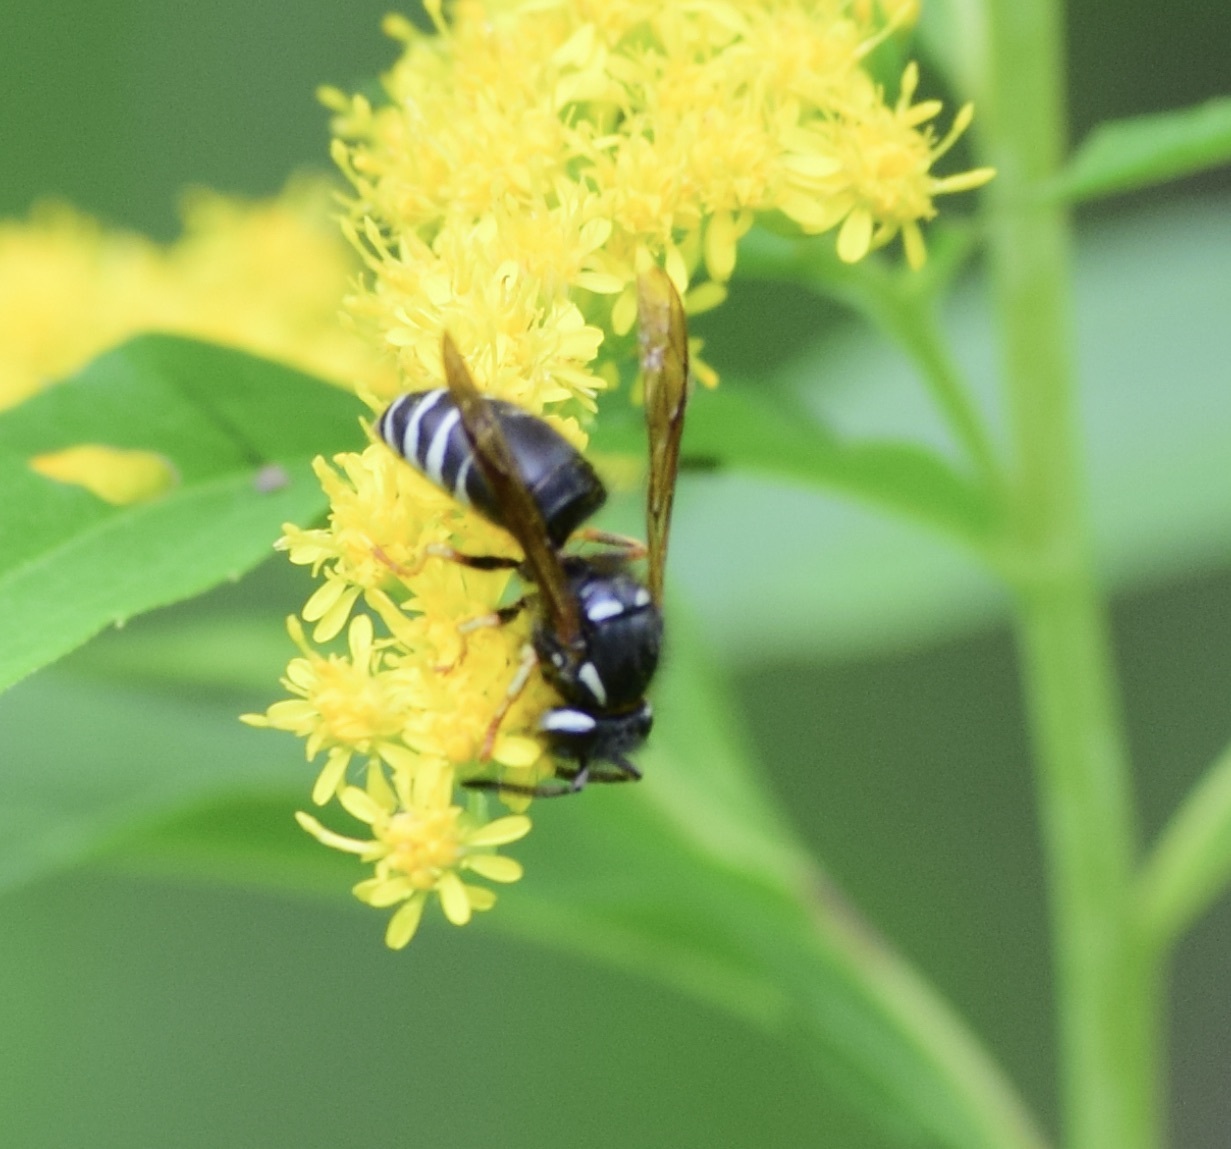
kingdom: Animalia
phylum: Arthropoda
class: Insecta
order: Hymenoptera
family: Vespidae
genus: Vespula
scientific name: Vespula consobrina
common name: Blackjacket
